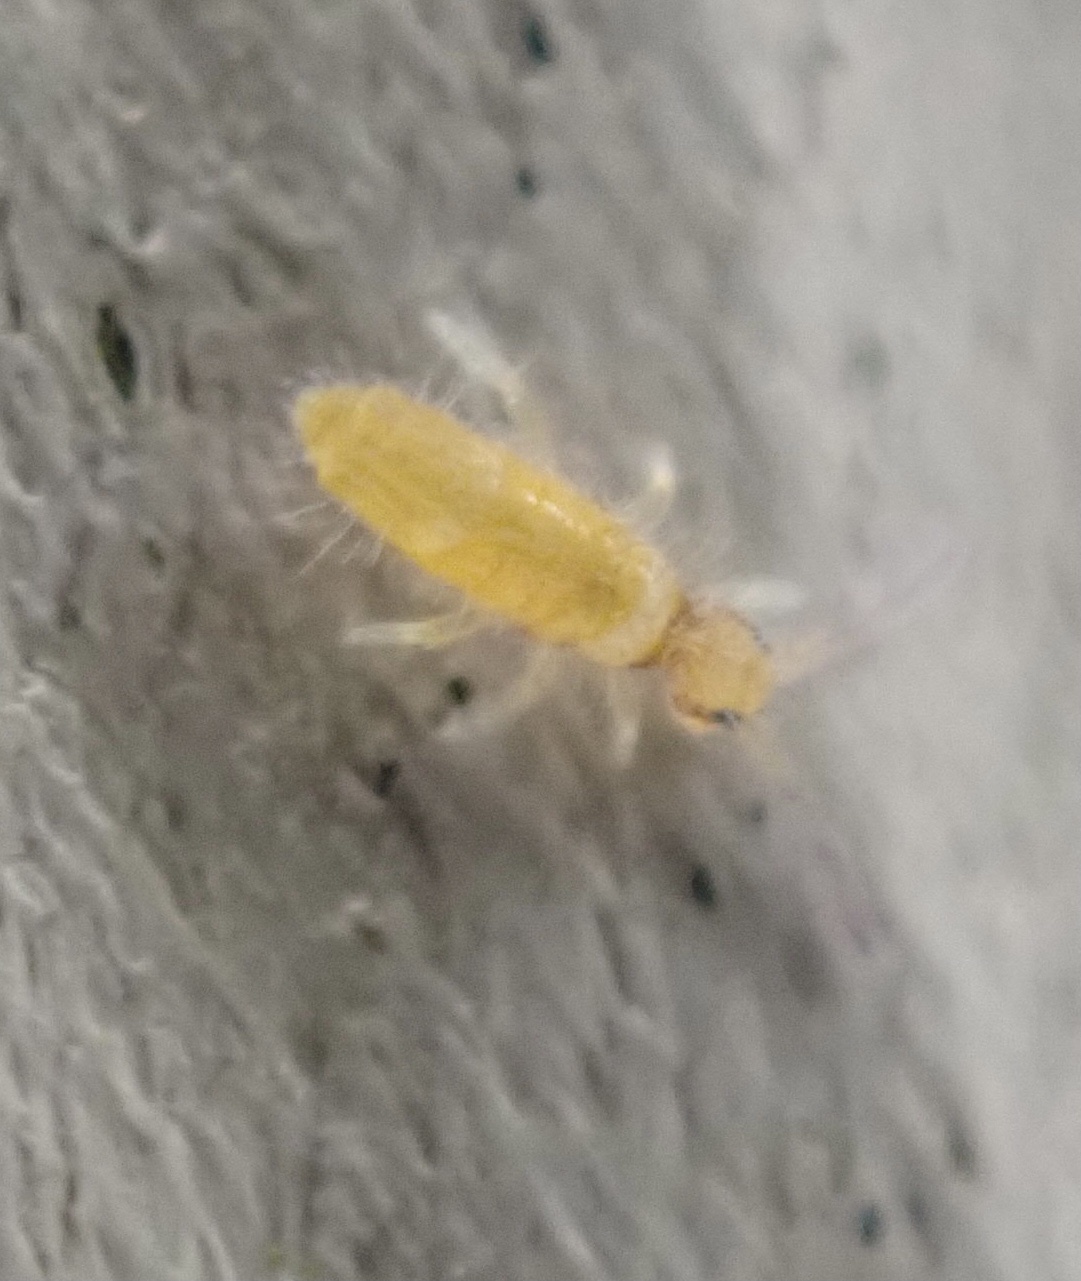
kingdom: Animalia
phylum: Arthropoda
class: Collembola
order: Entomobryomorpha
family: Entomobryidae
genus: Entomobrya
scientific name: Entomobrya atrocincta
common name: Springtail
